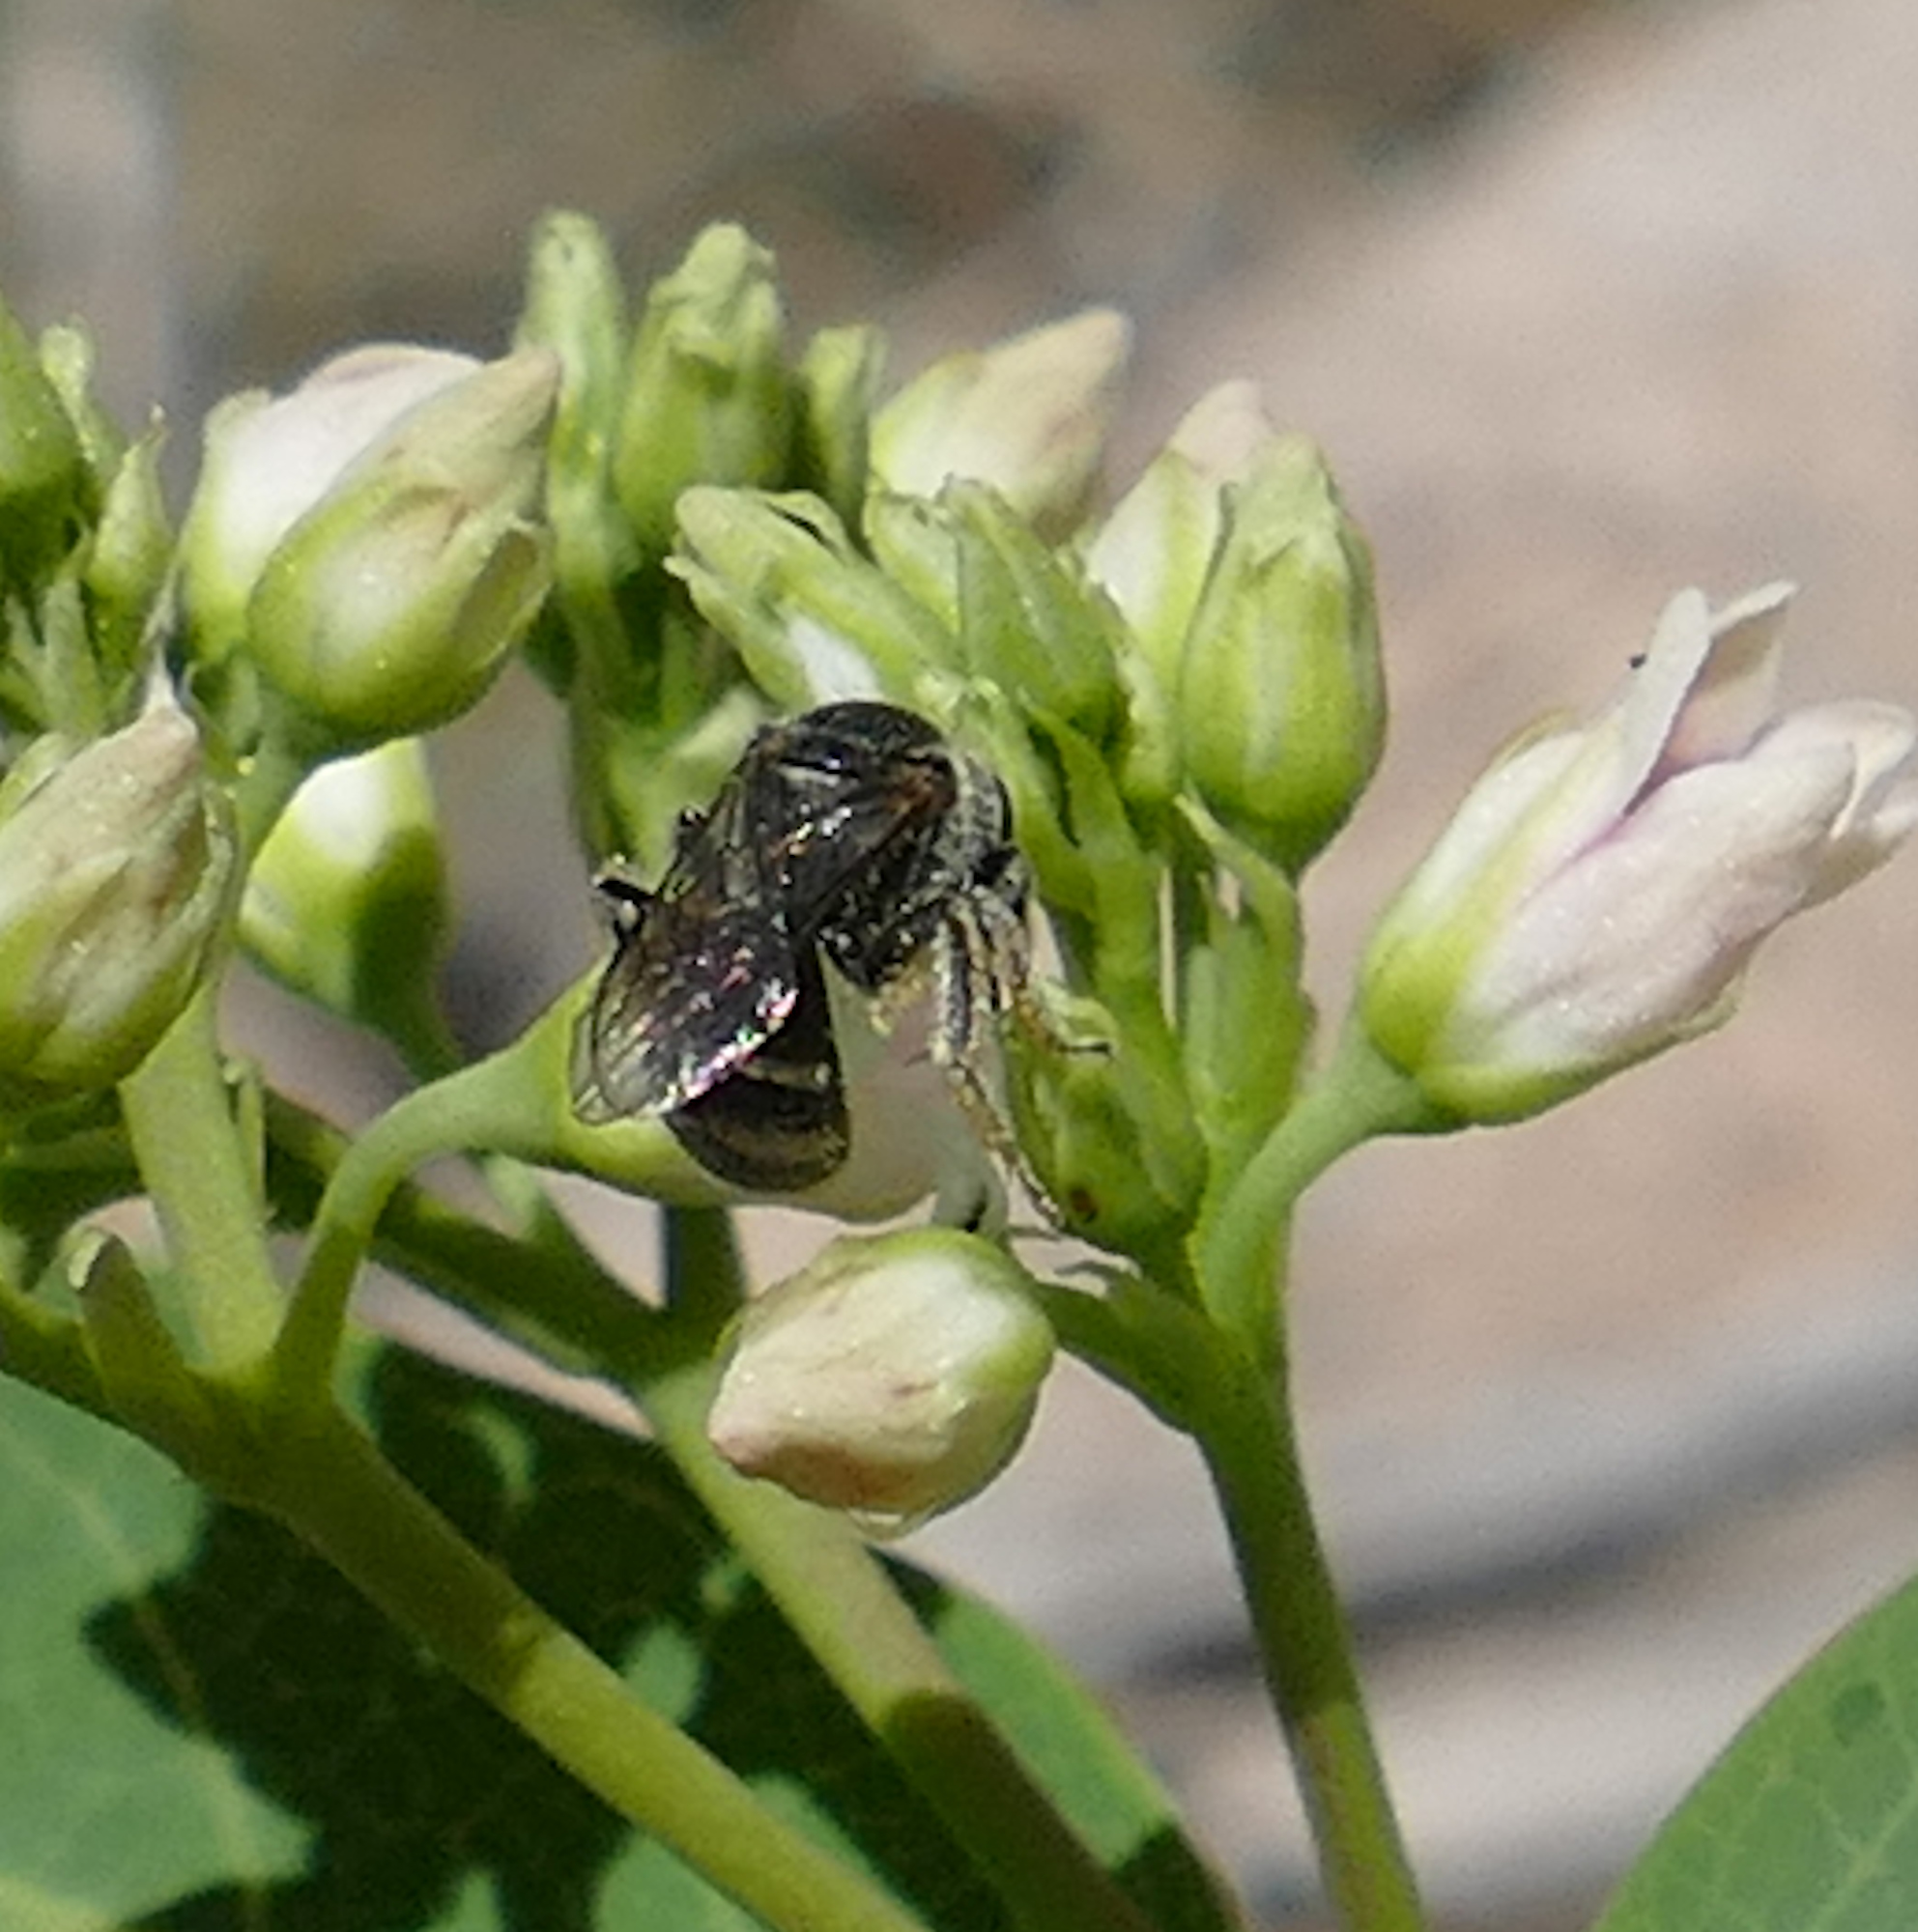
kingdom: Animalia
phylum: Arthropoda
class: Insecta
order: Hymenoptera
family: Halictidae
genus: Lasioglossum
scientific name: Lasioglossum
